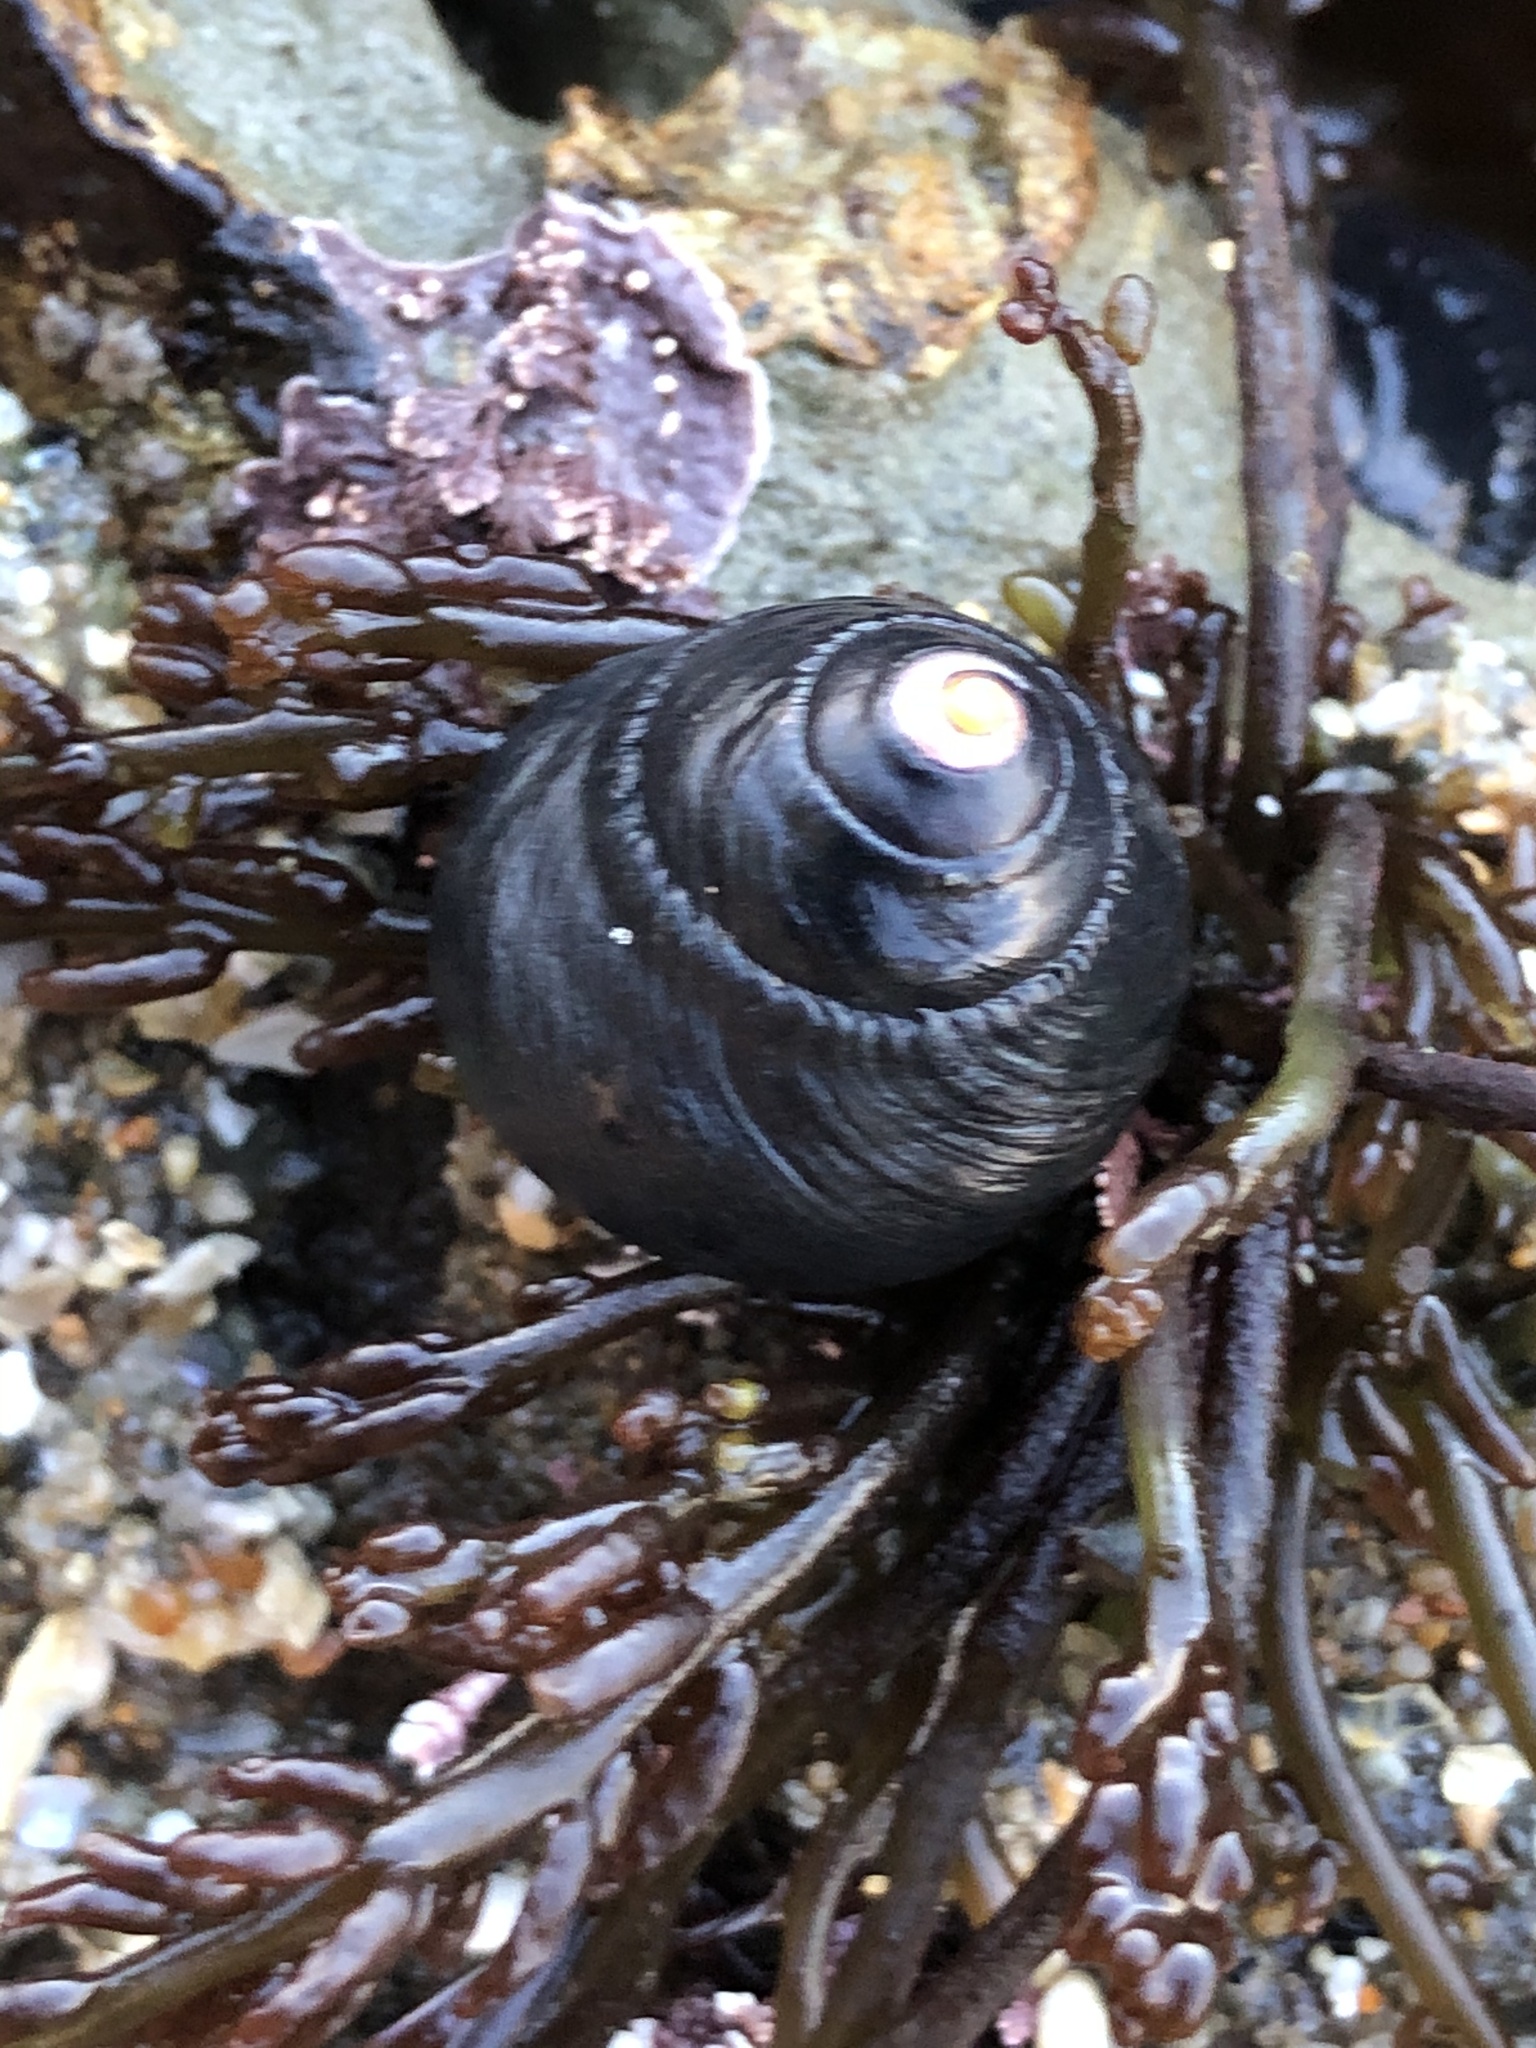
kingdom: Animalia
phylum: Mollusca
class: Gastropoda
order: Trochida
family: Tegulidae
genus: Tegula
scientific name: Tegula funebralis
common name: Black tegula
